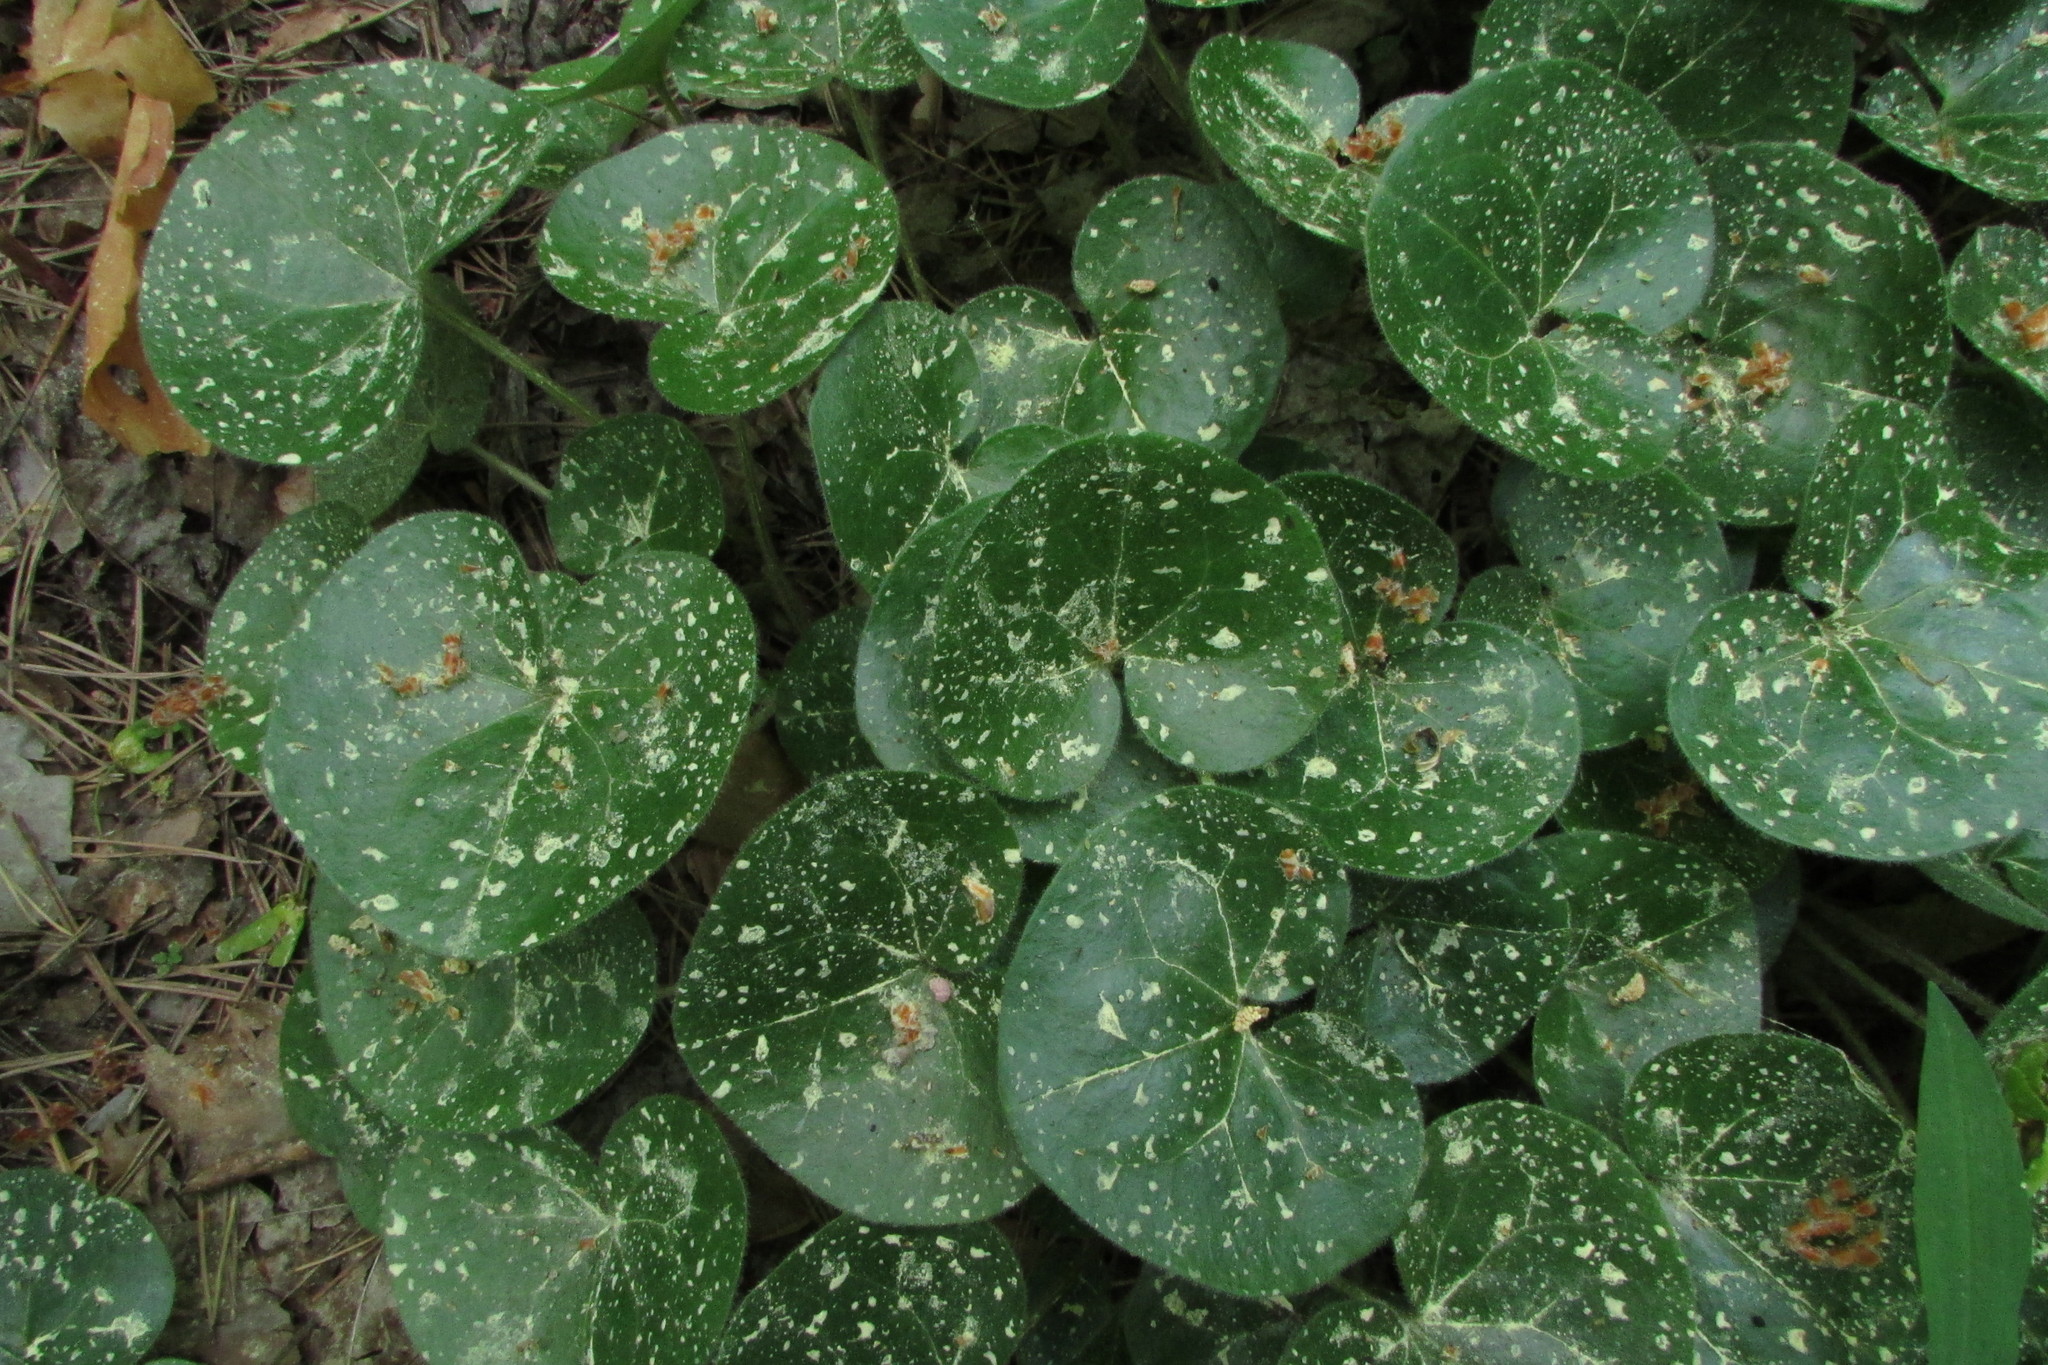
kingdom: Plantae
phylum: Tracheophyta
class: Magnoliopsida
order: Piperales
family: Aristolochiaceae
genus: Asarum
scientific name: Asarum europaeum
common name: Asarabacca
